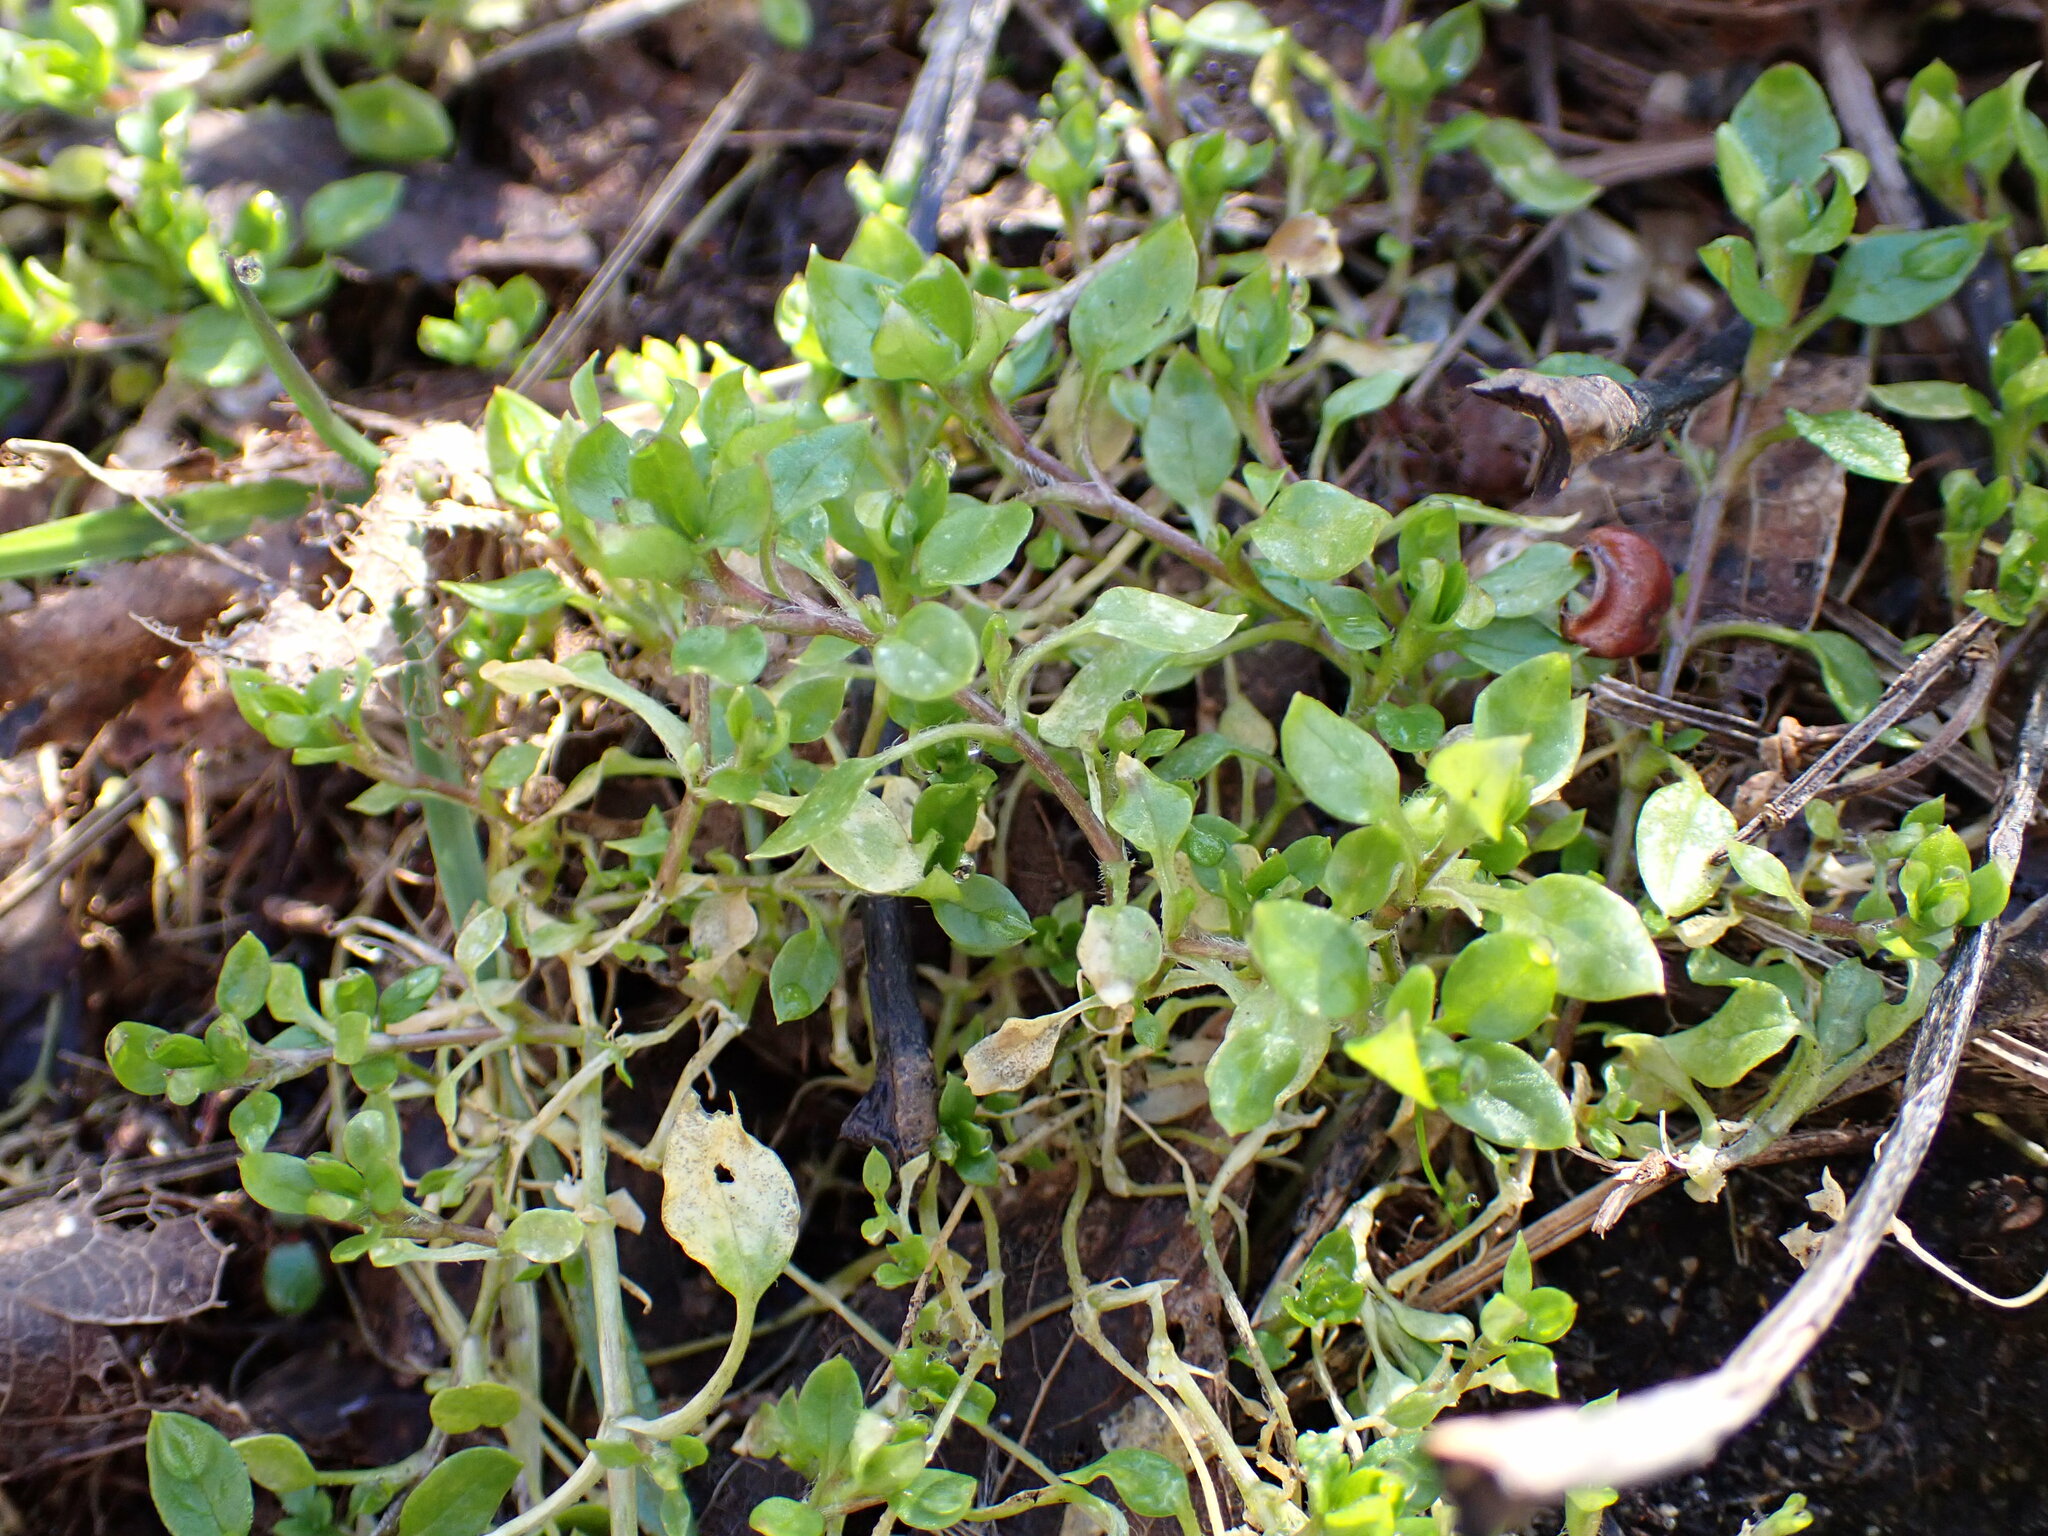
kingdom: Plantae
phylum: Tracheophyta
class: Magnoliopsida
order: Caryophyllales
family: Caryophyllaceae
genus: Stellaria
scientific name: Stellaria media
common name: Common chickweed
